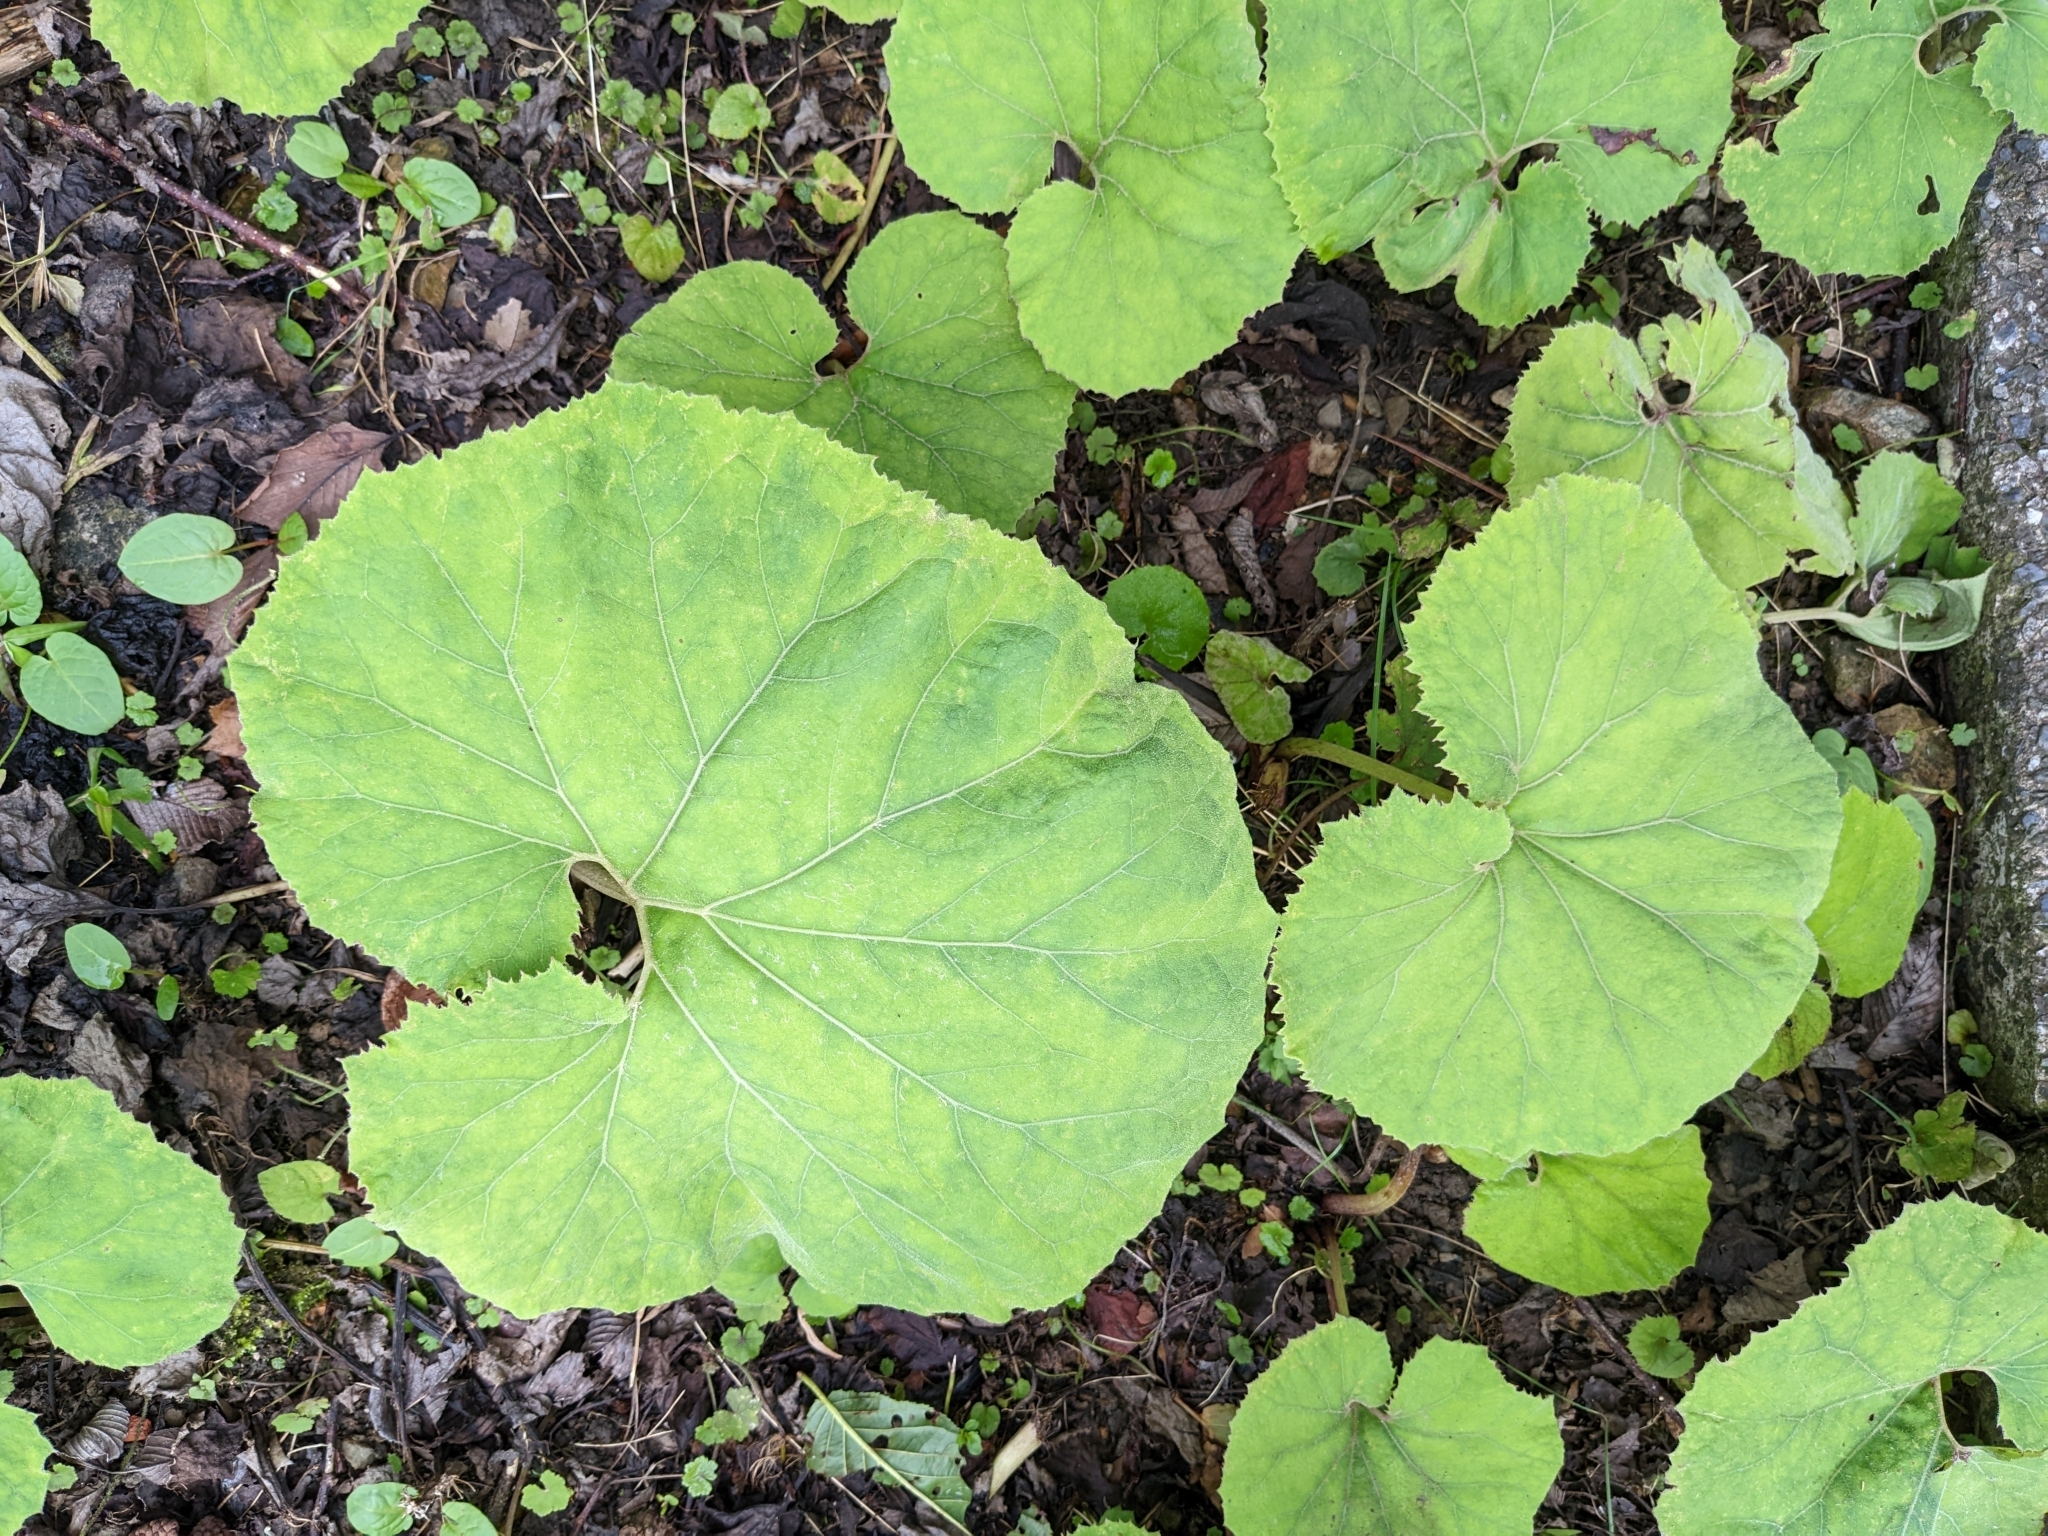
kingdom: Plantae
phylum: Tracheophyta
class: Magnoliopsida
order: Asterales
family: Asteraceae
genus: Petasites
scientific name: Petasites formosanus
